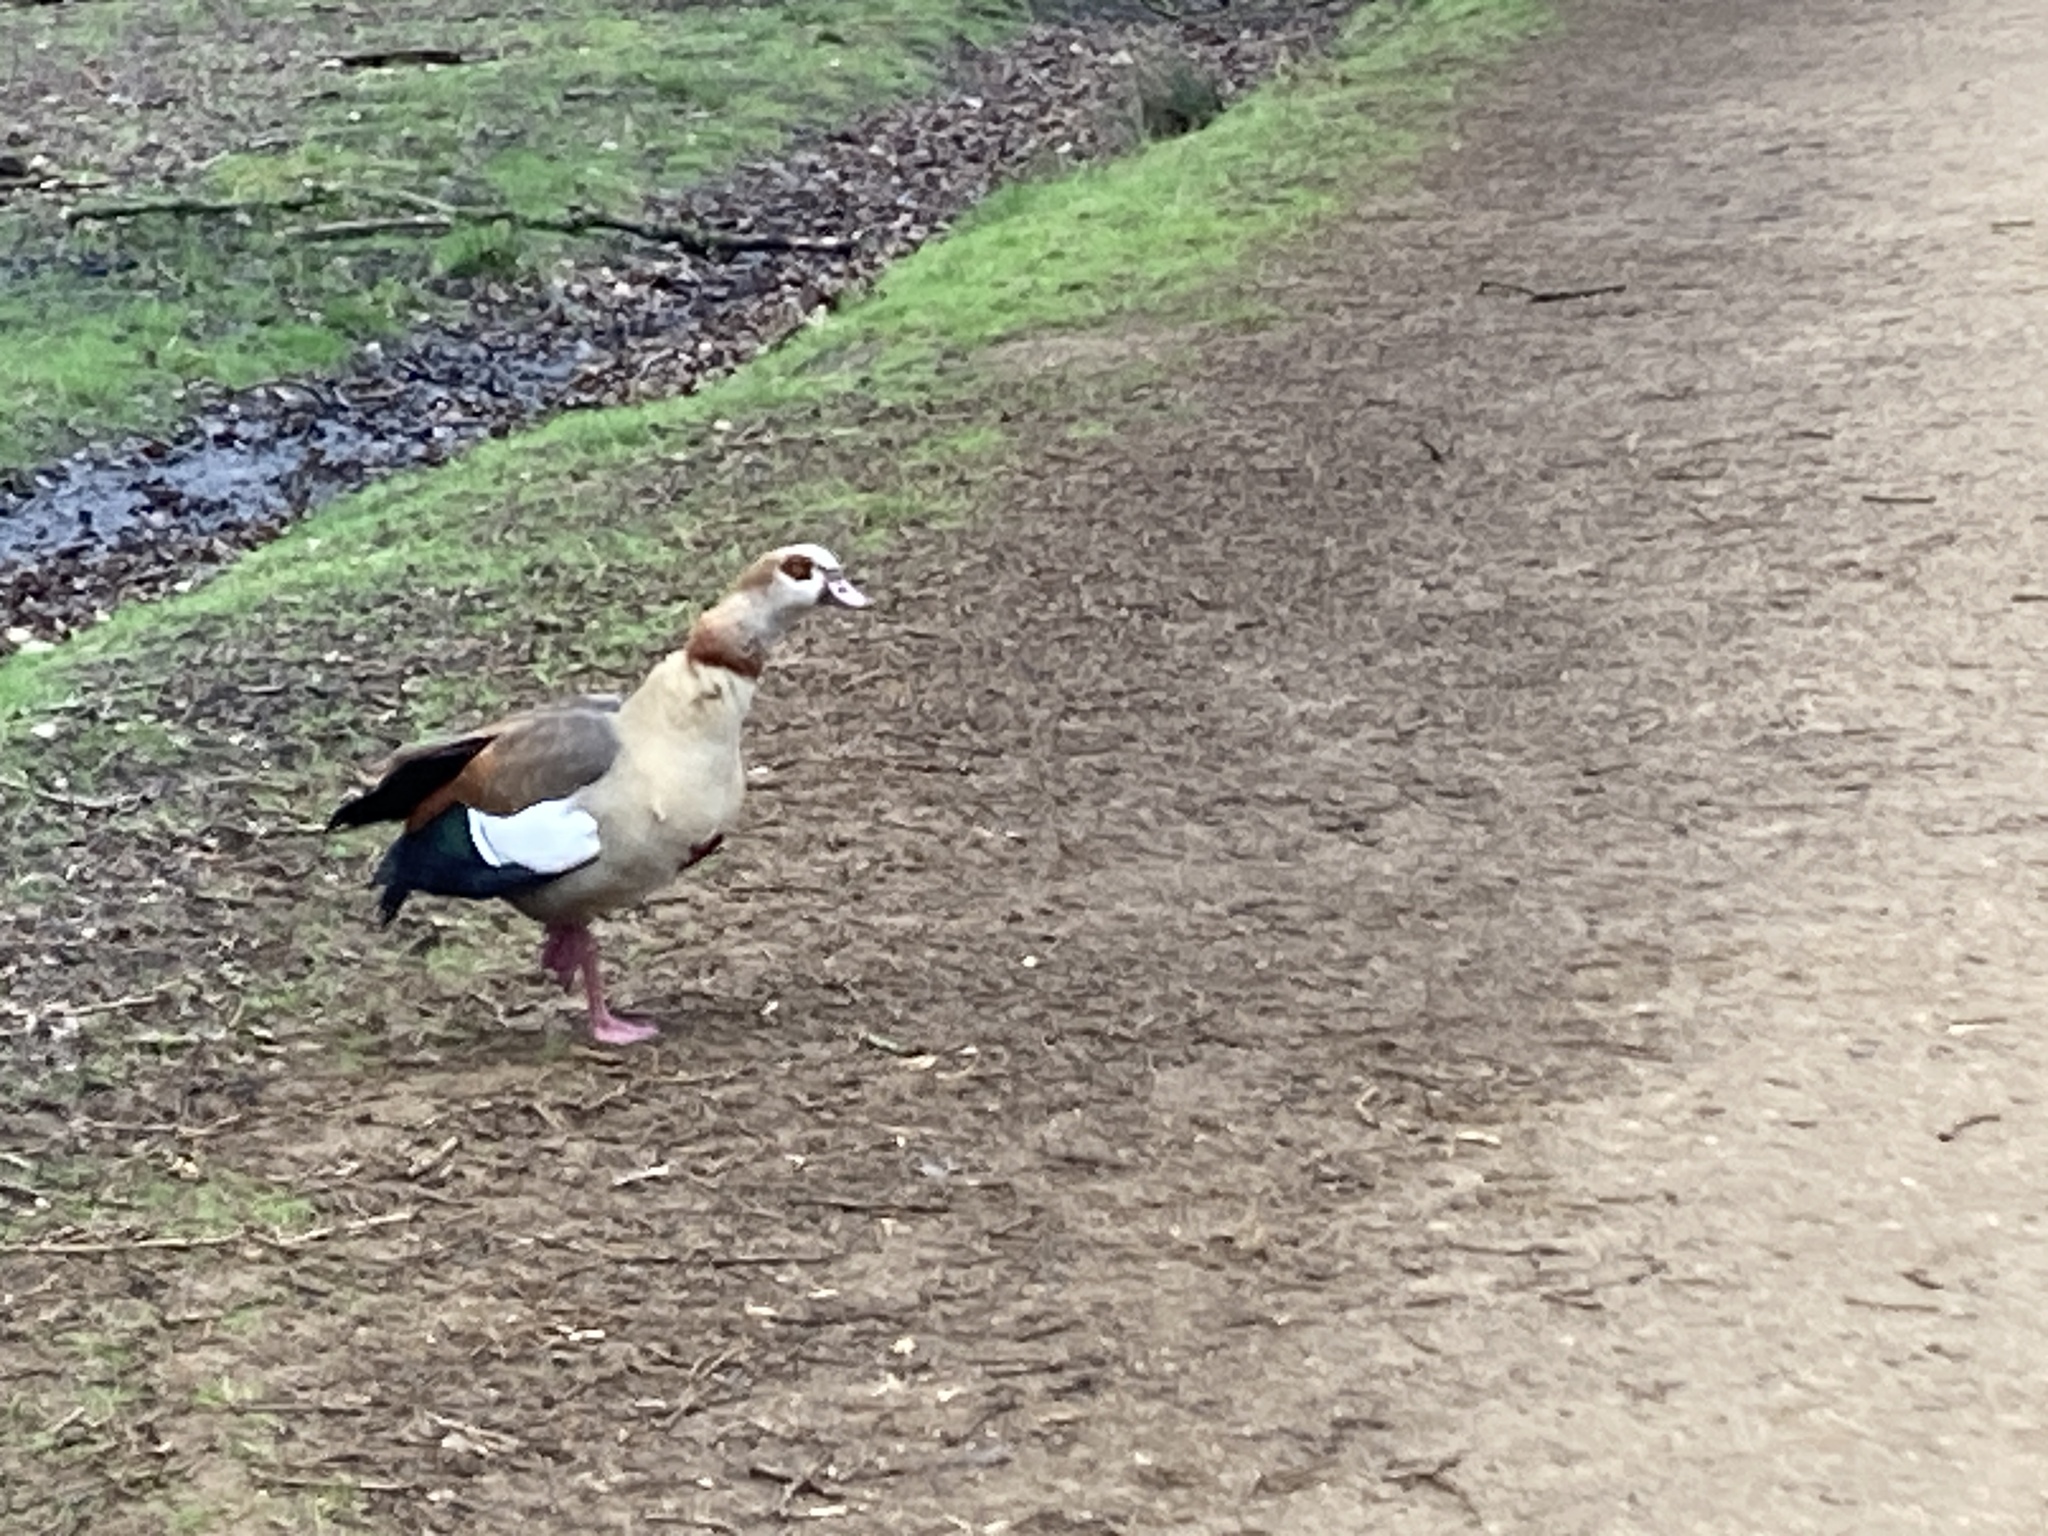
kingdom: Animalia
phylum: Chordata
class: Aves
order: Anseriformes
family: Anatidae
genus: Alopochen
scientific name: Alopochen aegyptiaca
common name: Egyptian goose
